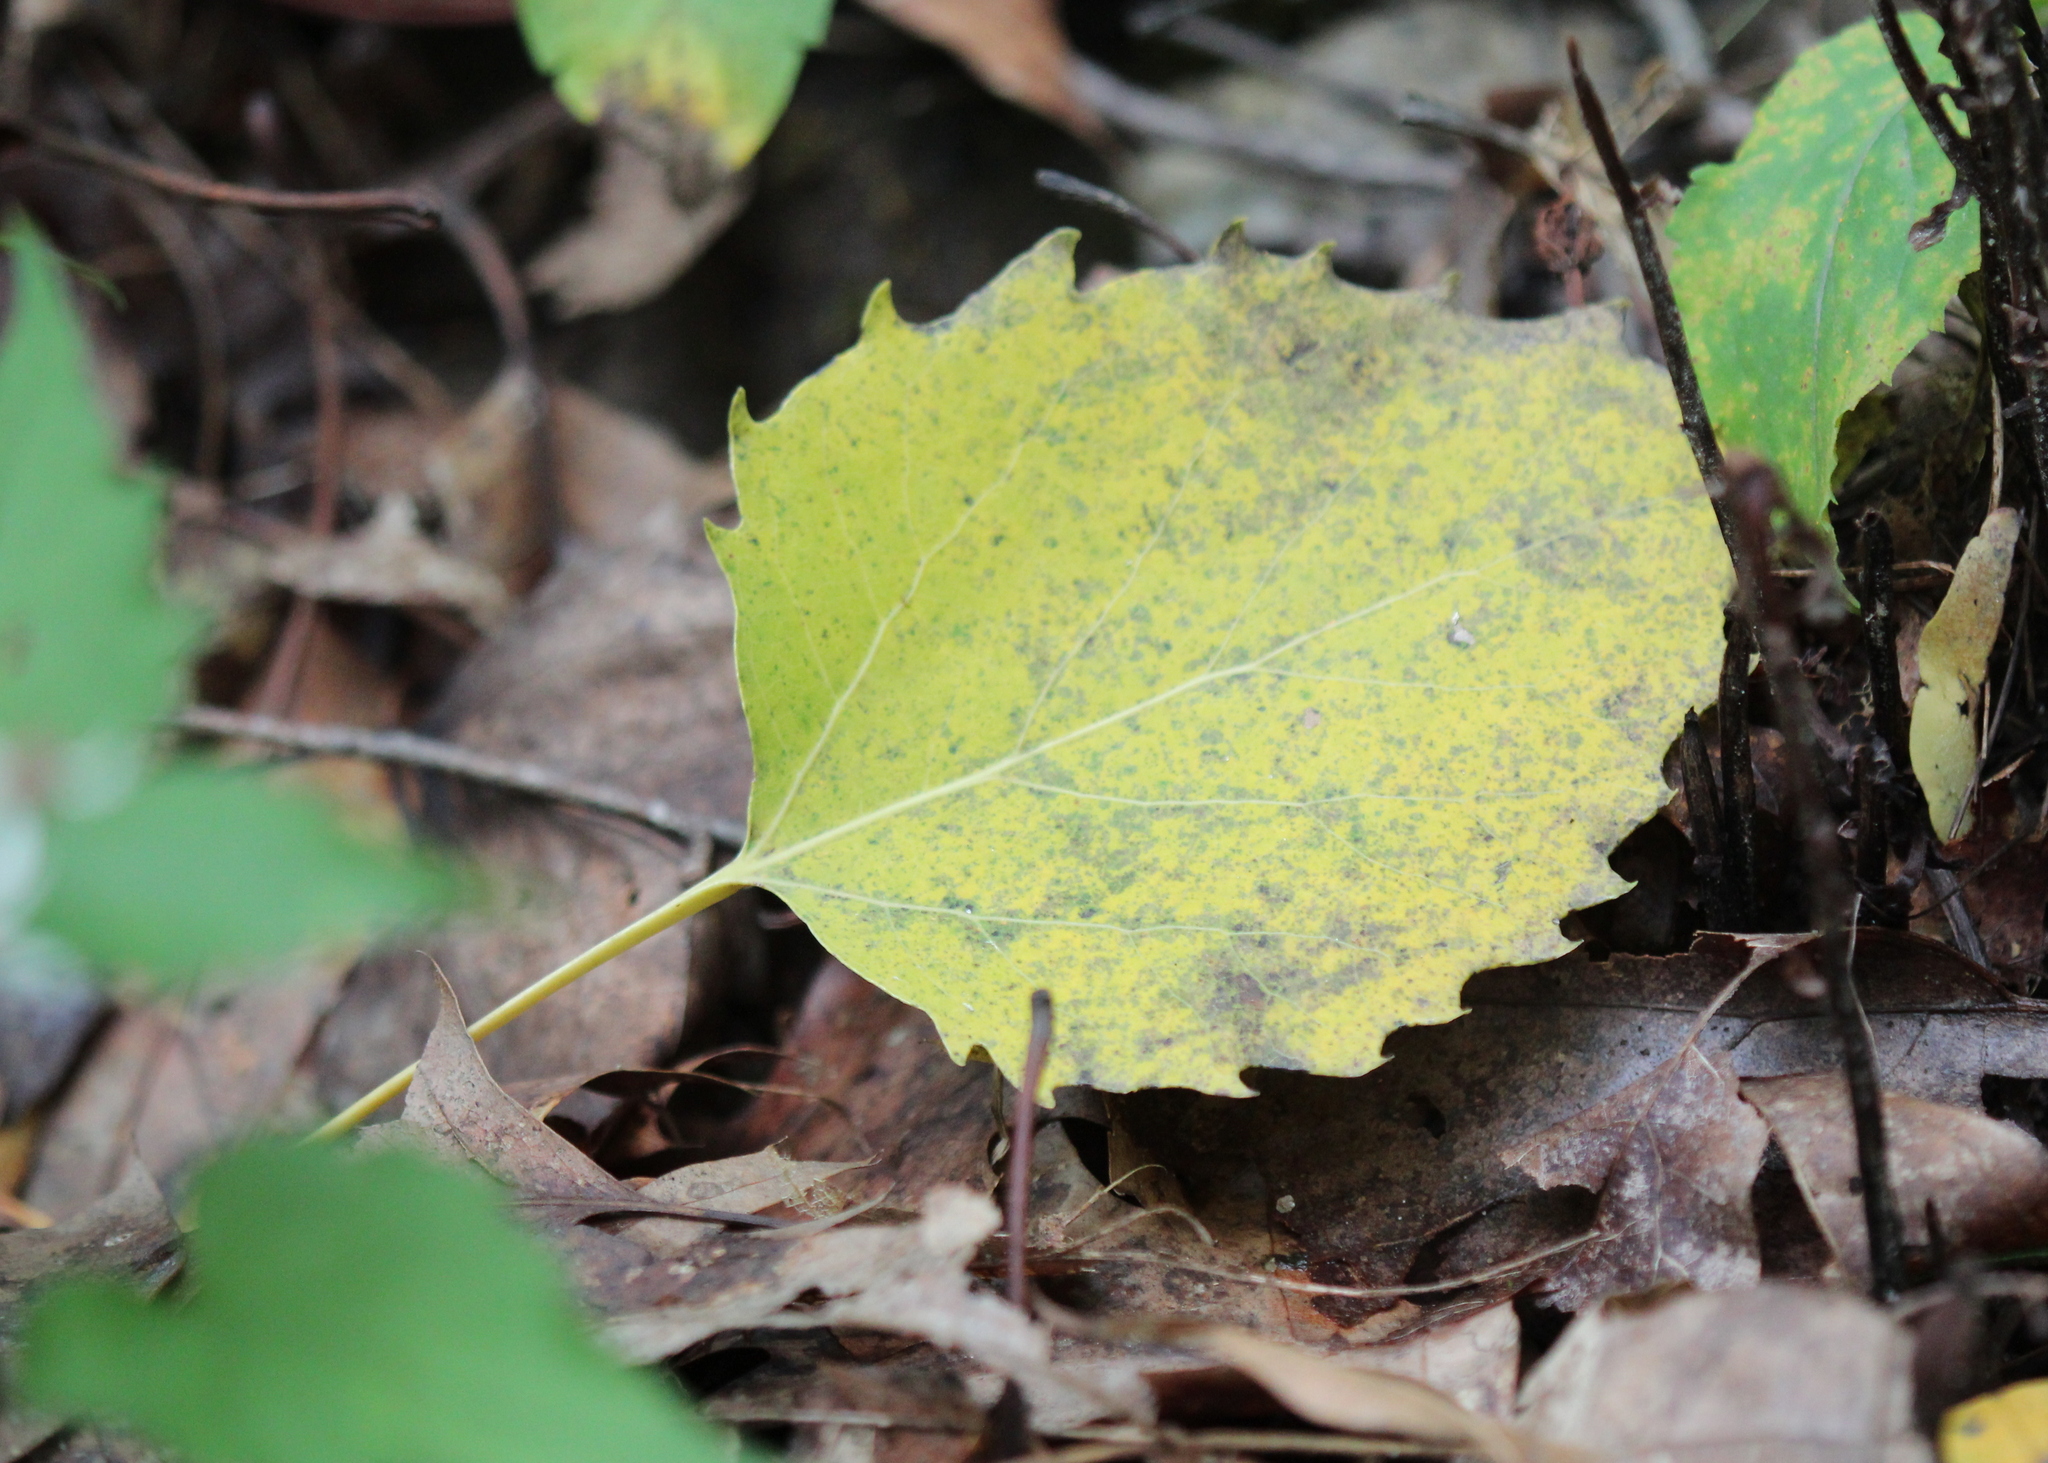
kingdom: Plantae
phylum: Tracheophyta
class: Magnoliopsida
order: Malpighiales
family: Salicaceae
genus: Populus
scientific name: Populus grandidentata
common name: Bigtooth aspen
